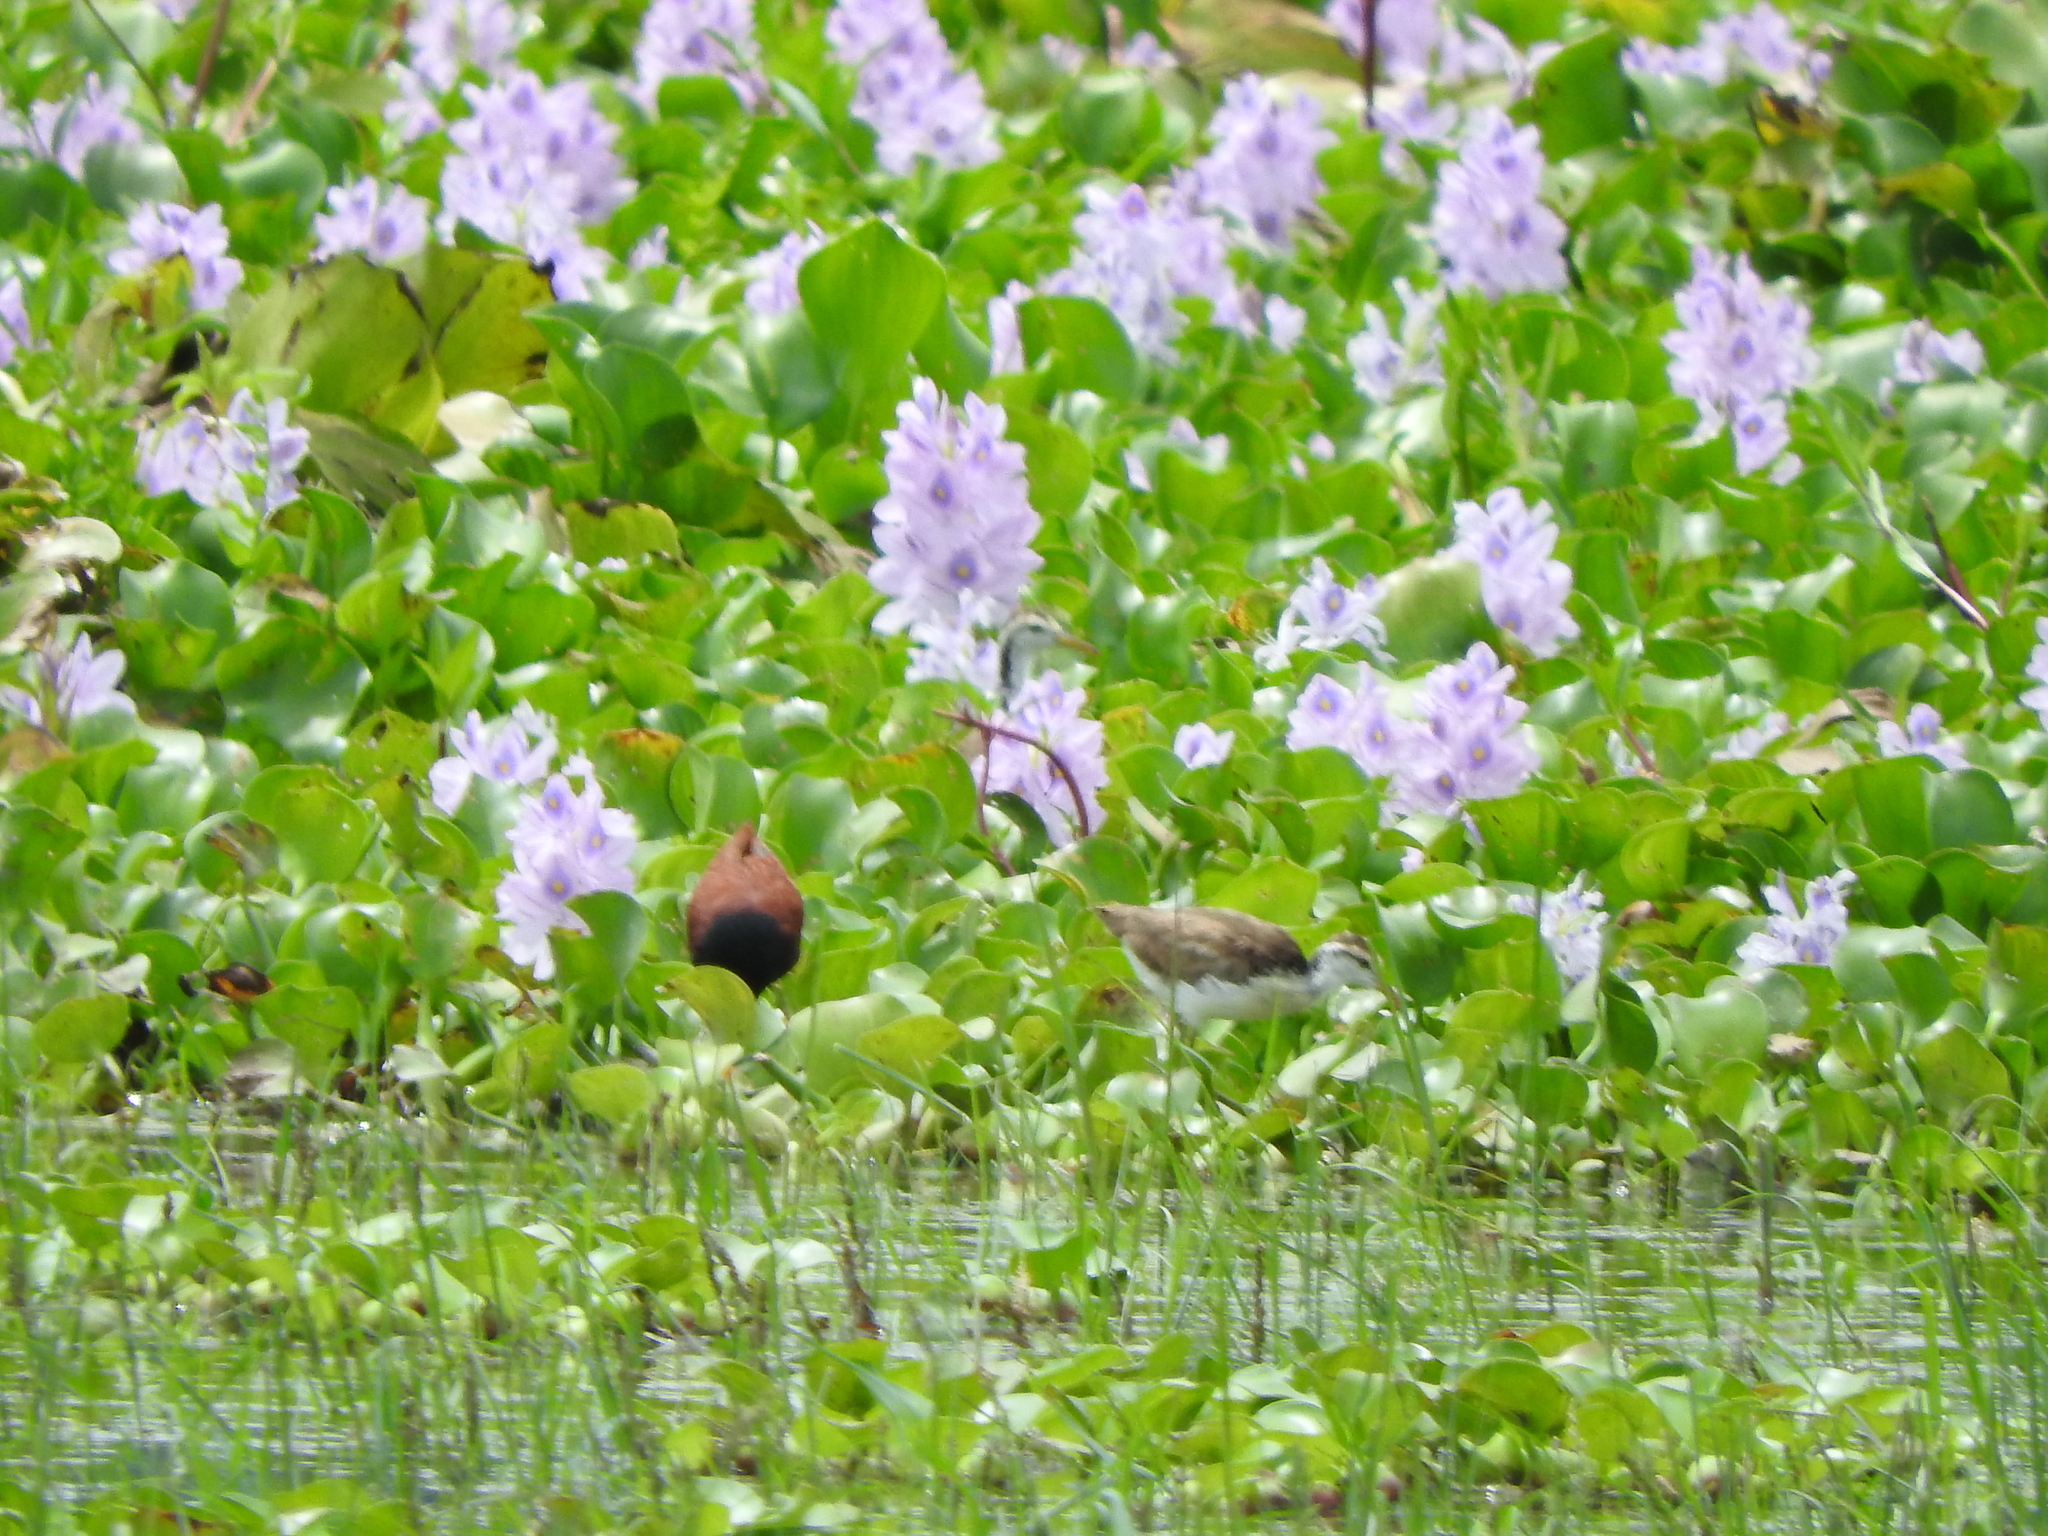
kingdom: Animalia
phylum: Chordata
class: Aves
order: Charadriiformes
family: Jacanidae
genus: Jacana
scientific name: Jacana spinosa
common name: Northern jacana
